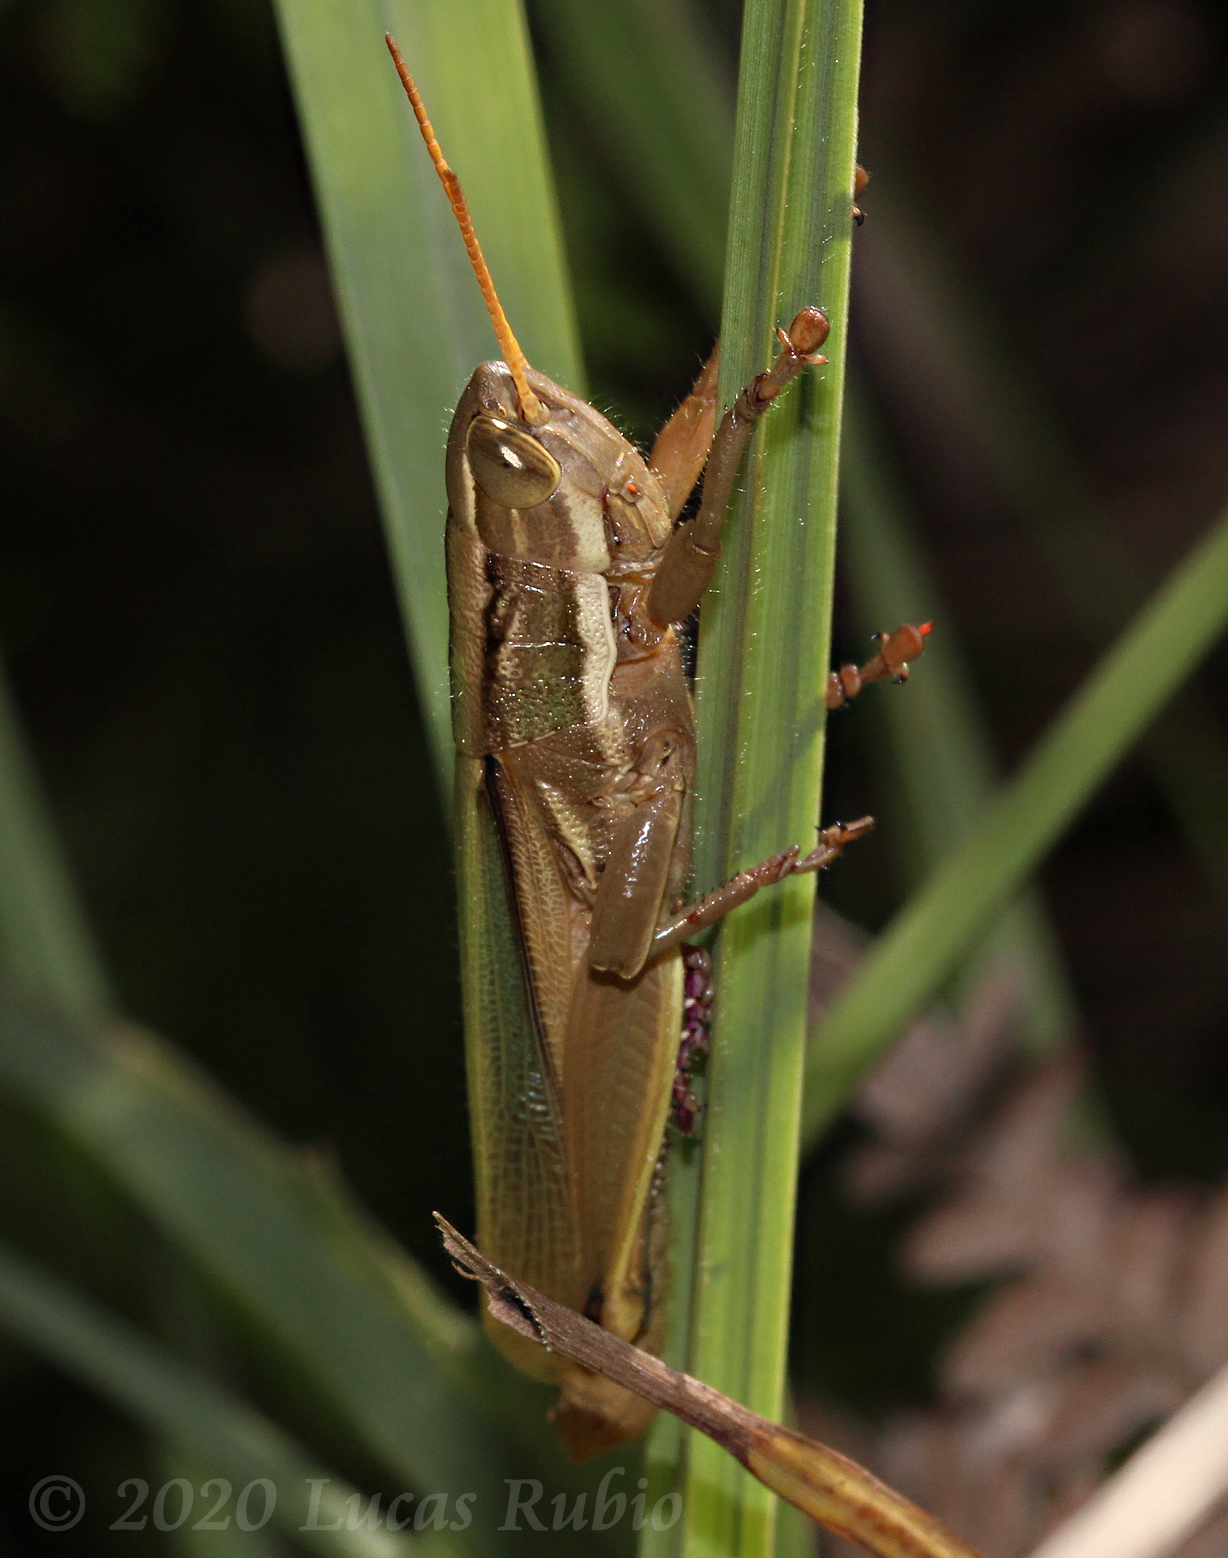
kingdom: Animalia
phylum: Arthropoda
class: Insecta
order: Orthoptera
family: Acrididae
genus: Aleuas
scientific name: Aleuas vitticollis
